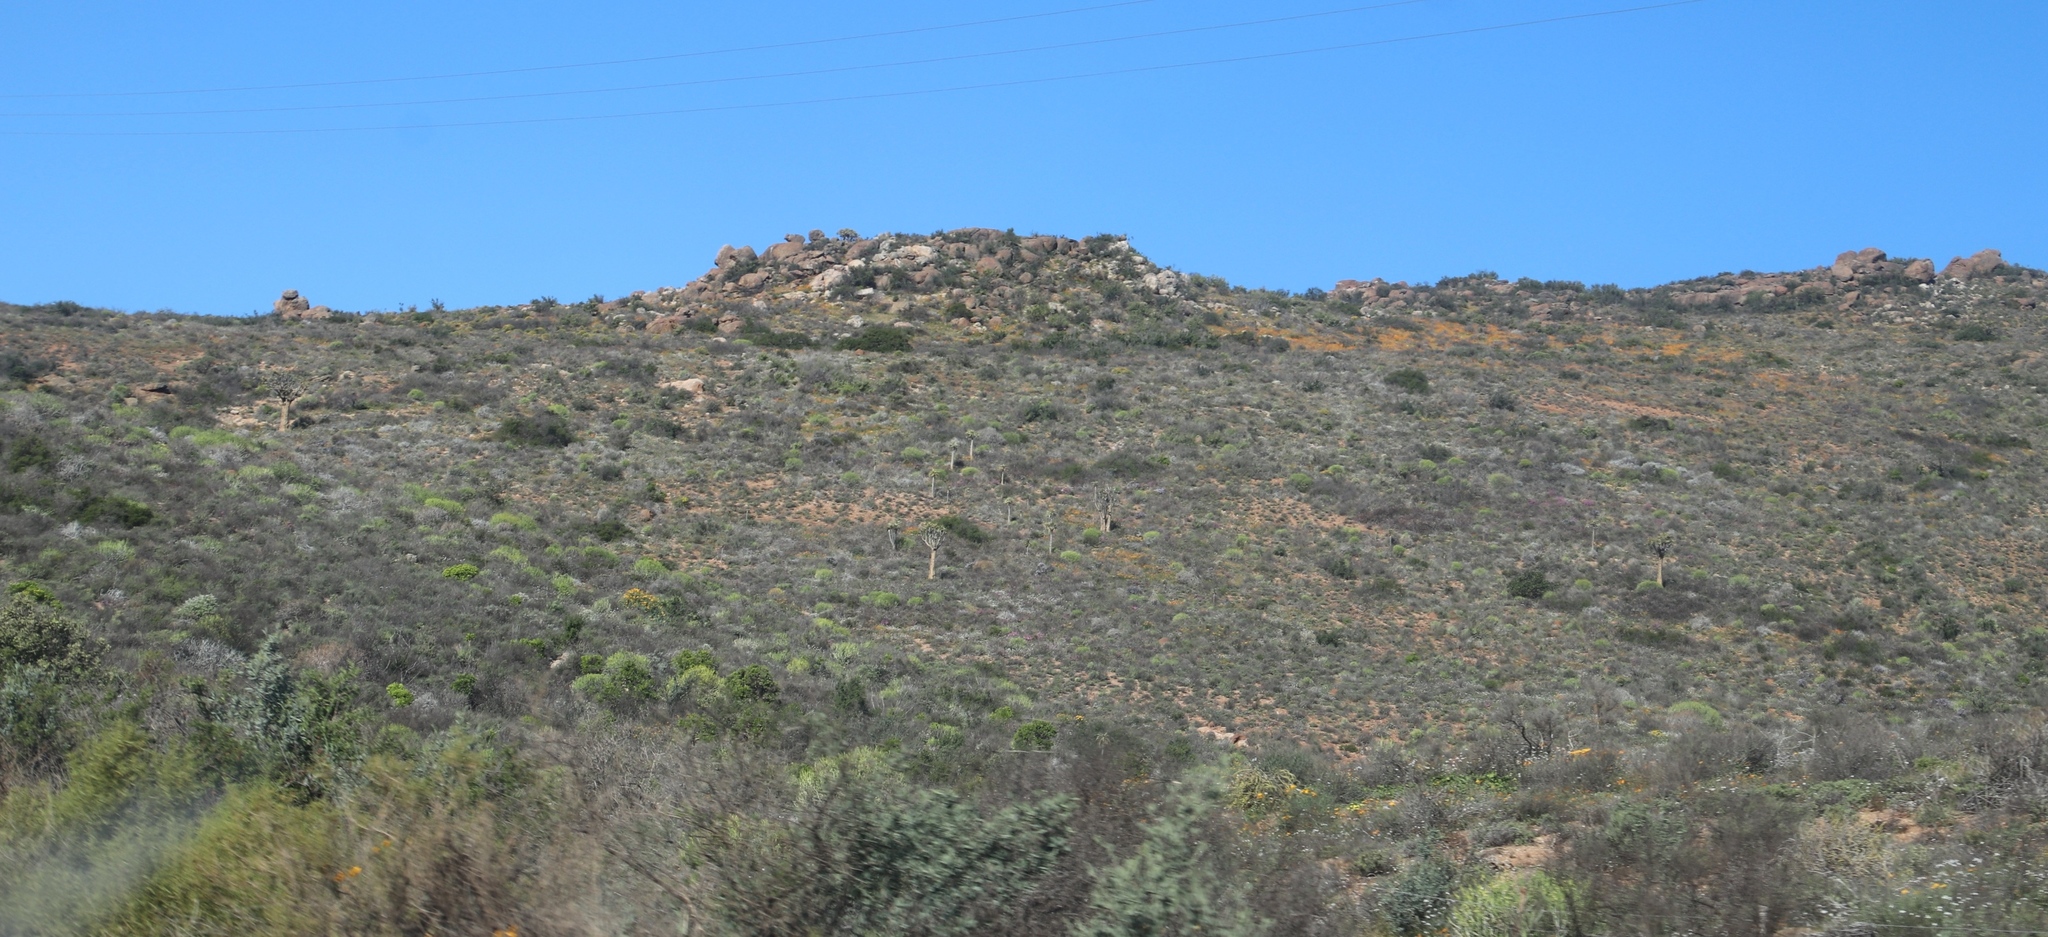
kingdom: Plantae
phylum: Tracheophyta
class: Liliopsida
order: Asparagales
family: Asphodelaceae
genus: Aloidendron
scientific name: Aloidendron dichotomum
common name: Quiver tree
